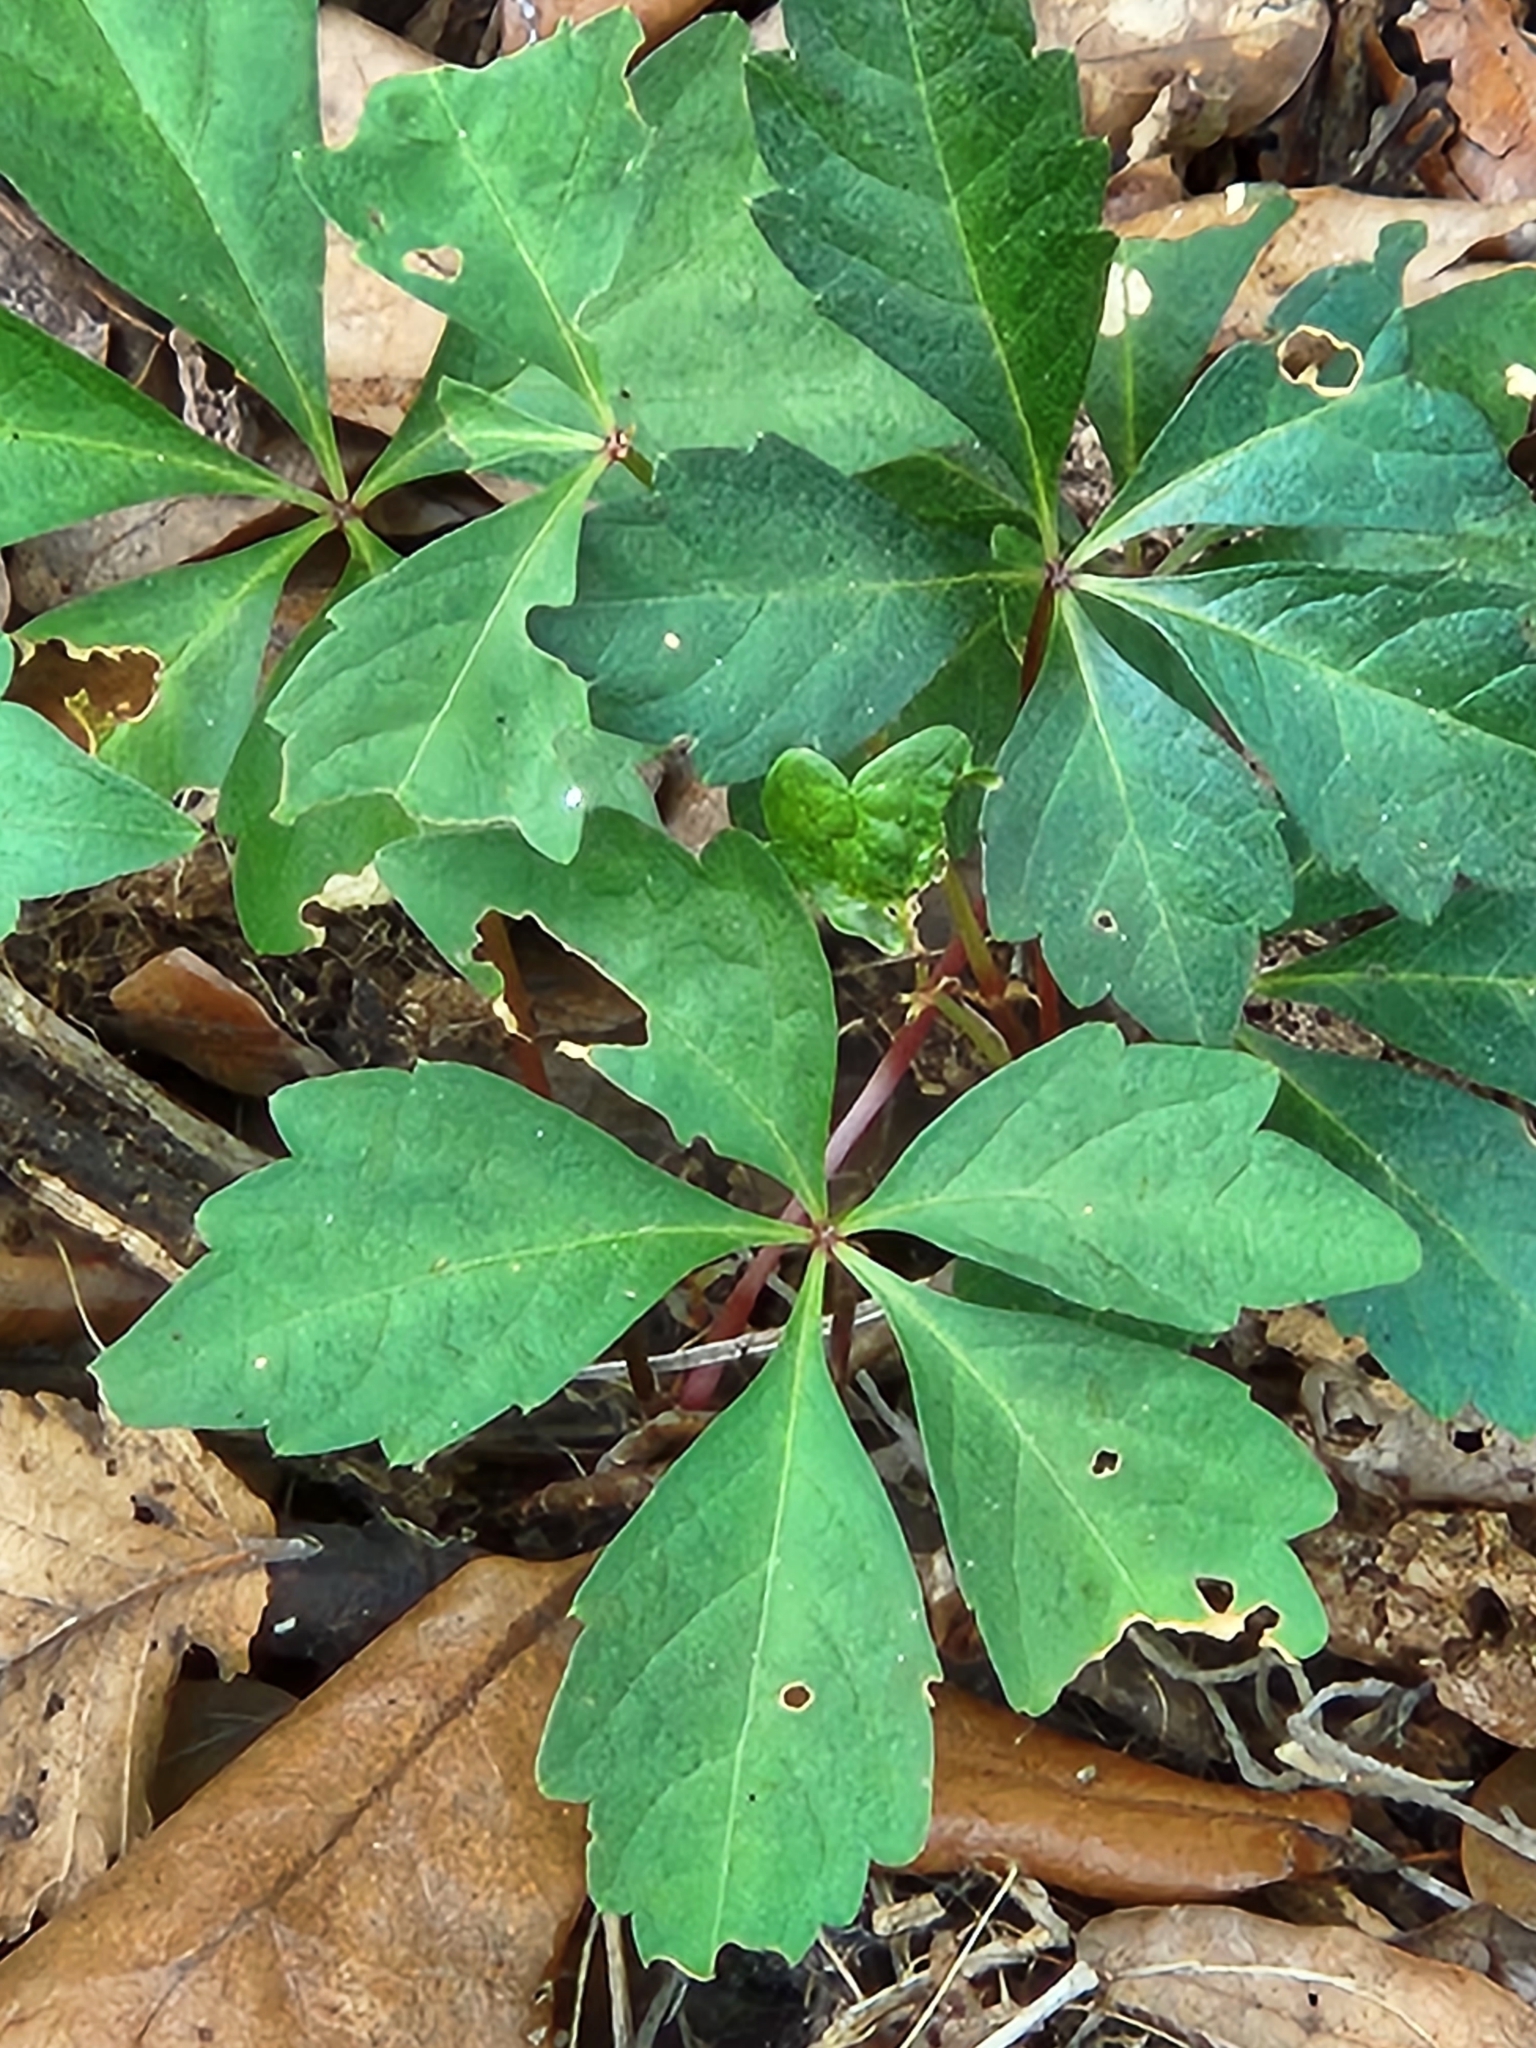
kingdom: Plantae
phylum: Tracheophyta
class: Magnoliopsida
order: Vitales
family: Vitaceae
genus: Parthenocissus
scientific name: Parthenocissus quinquefolia
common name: Virginia-creeper
